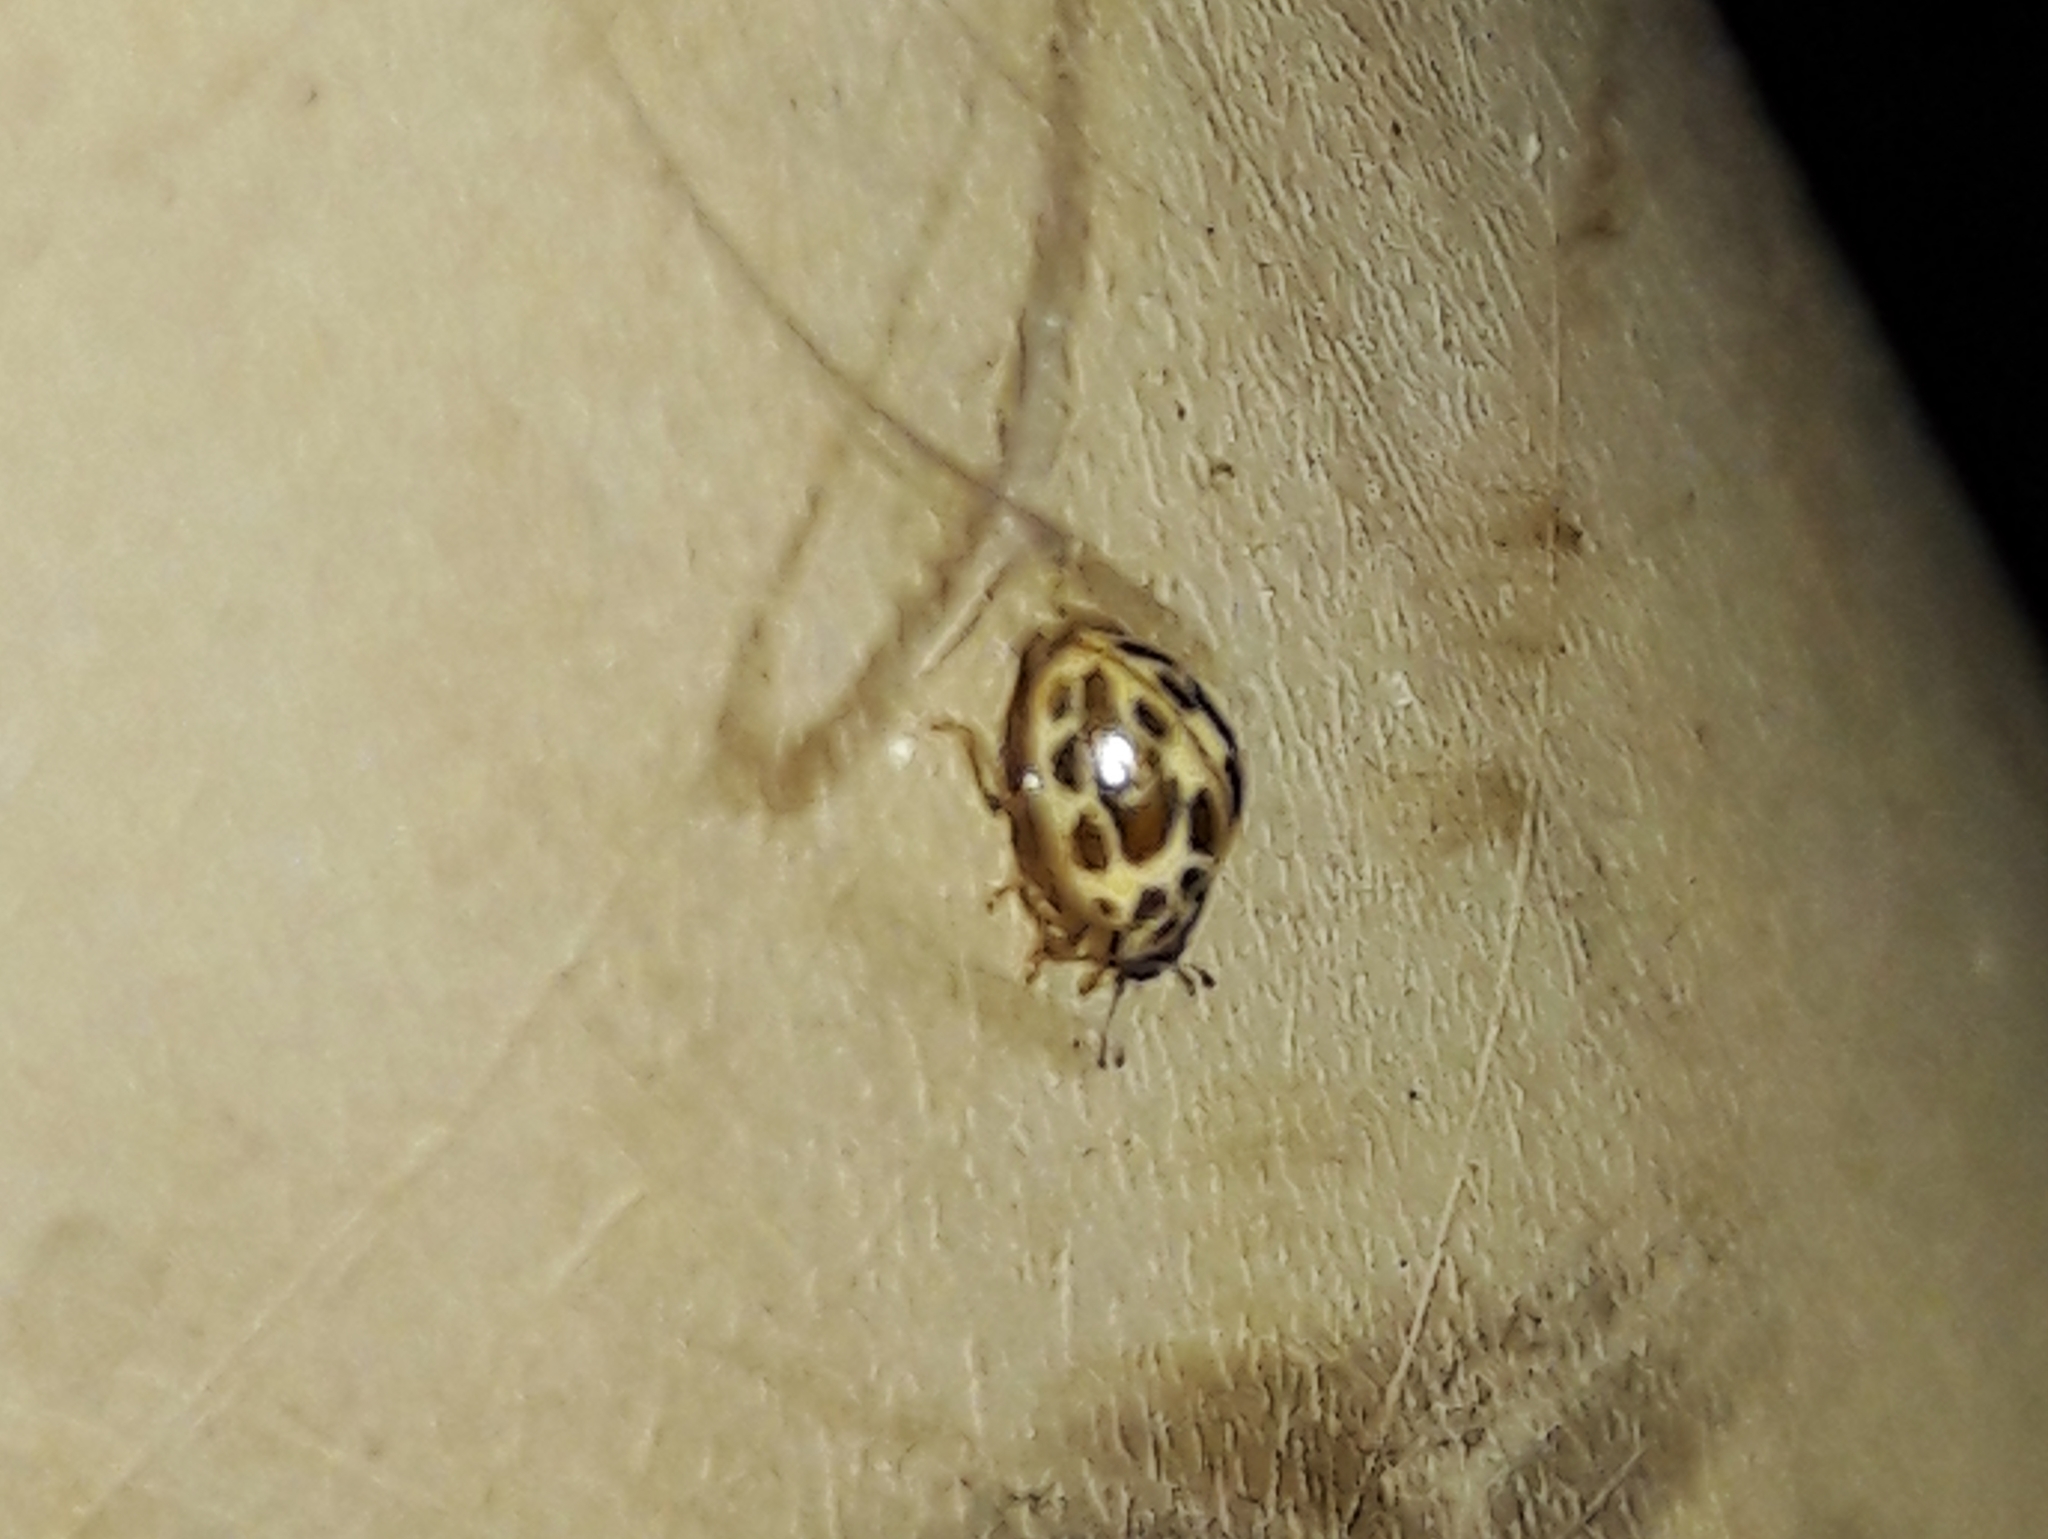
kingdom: Animalia
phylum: Arthropoda
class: Insecta
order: Coleoptera
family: Coccinellidae
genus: Psyllobora
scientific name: Psyllobora
